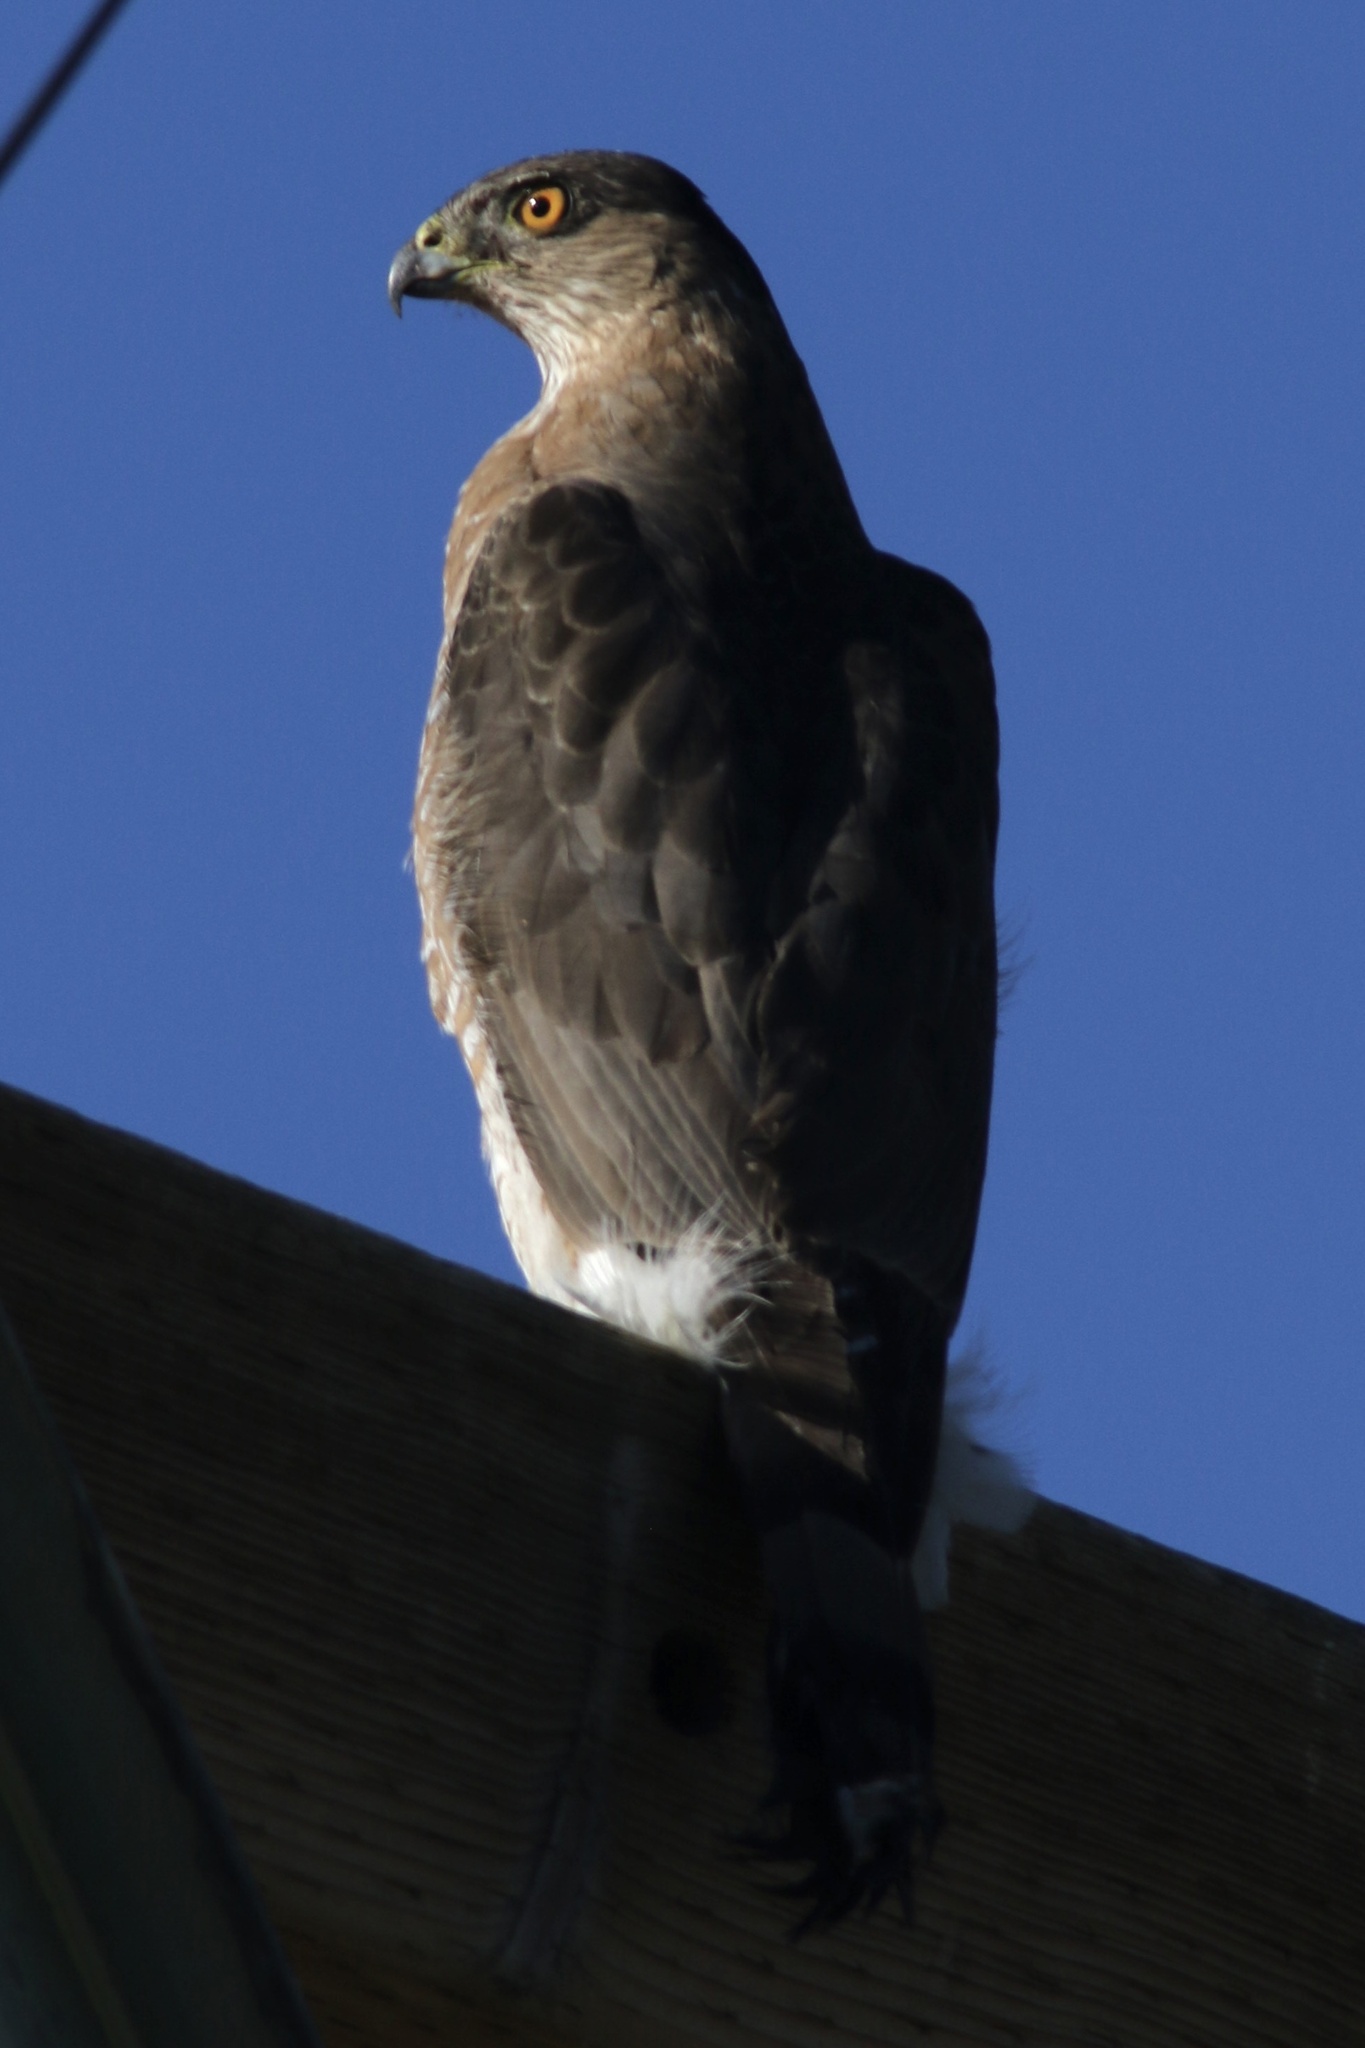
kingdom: Animalia
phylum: Chordata
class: Aves
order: Accipitriformes
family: Accipitridae
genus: Accipiter
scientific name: Accipiter cooperii
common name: Cooper's hawk
